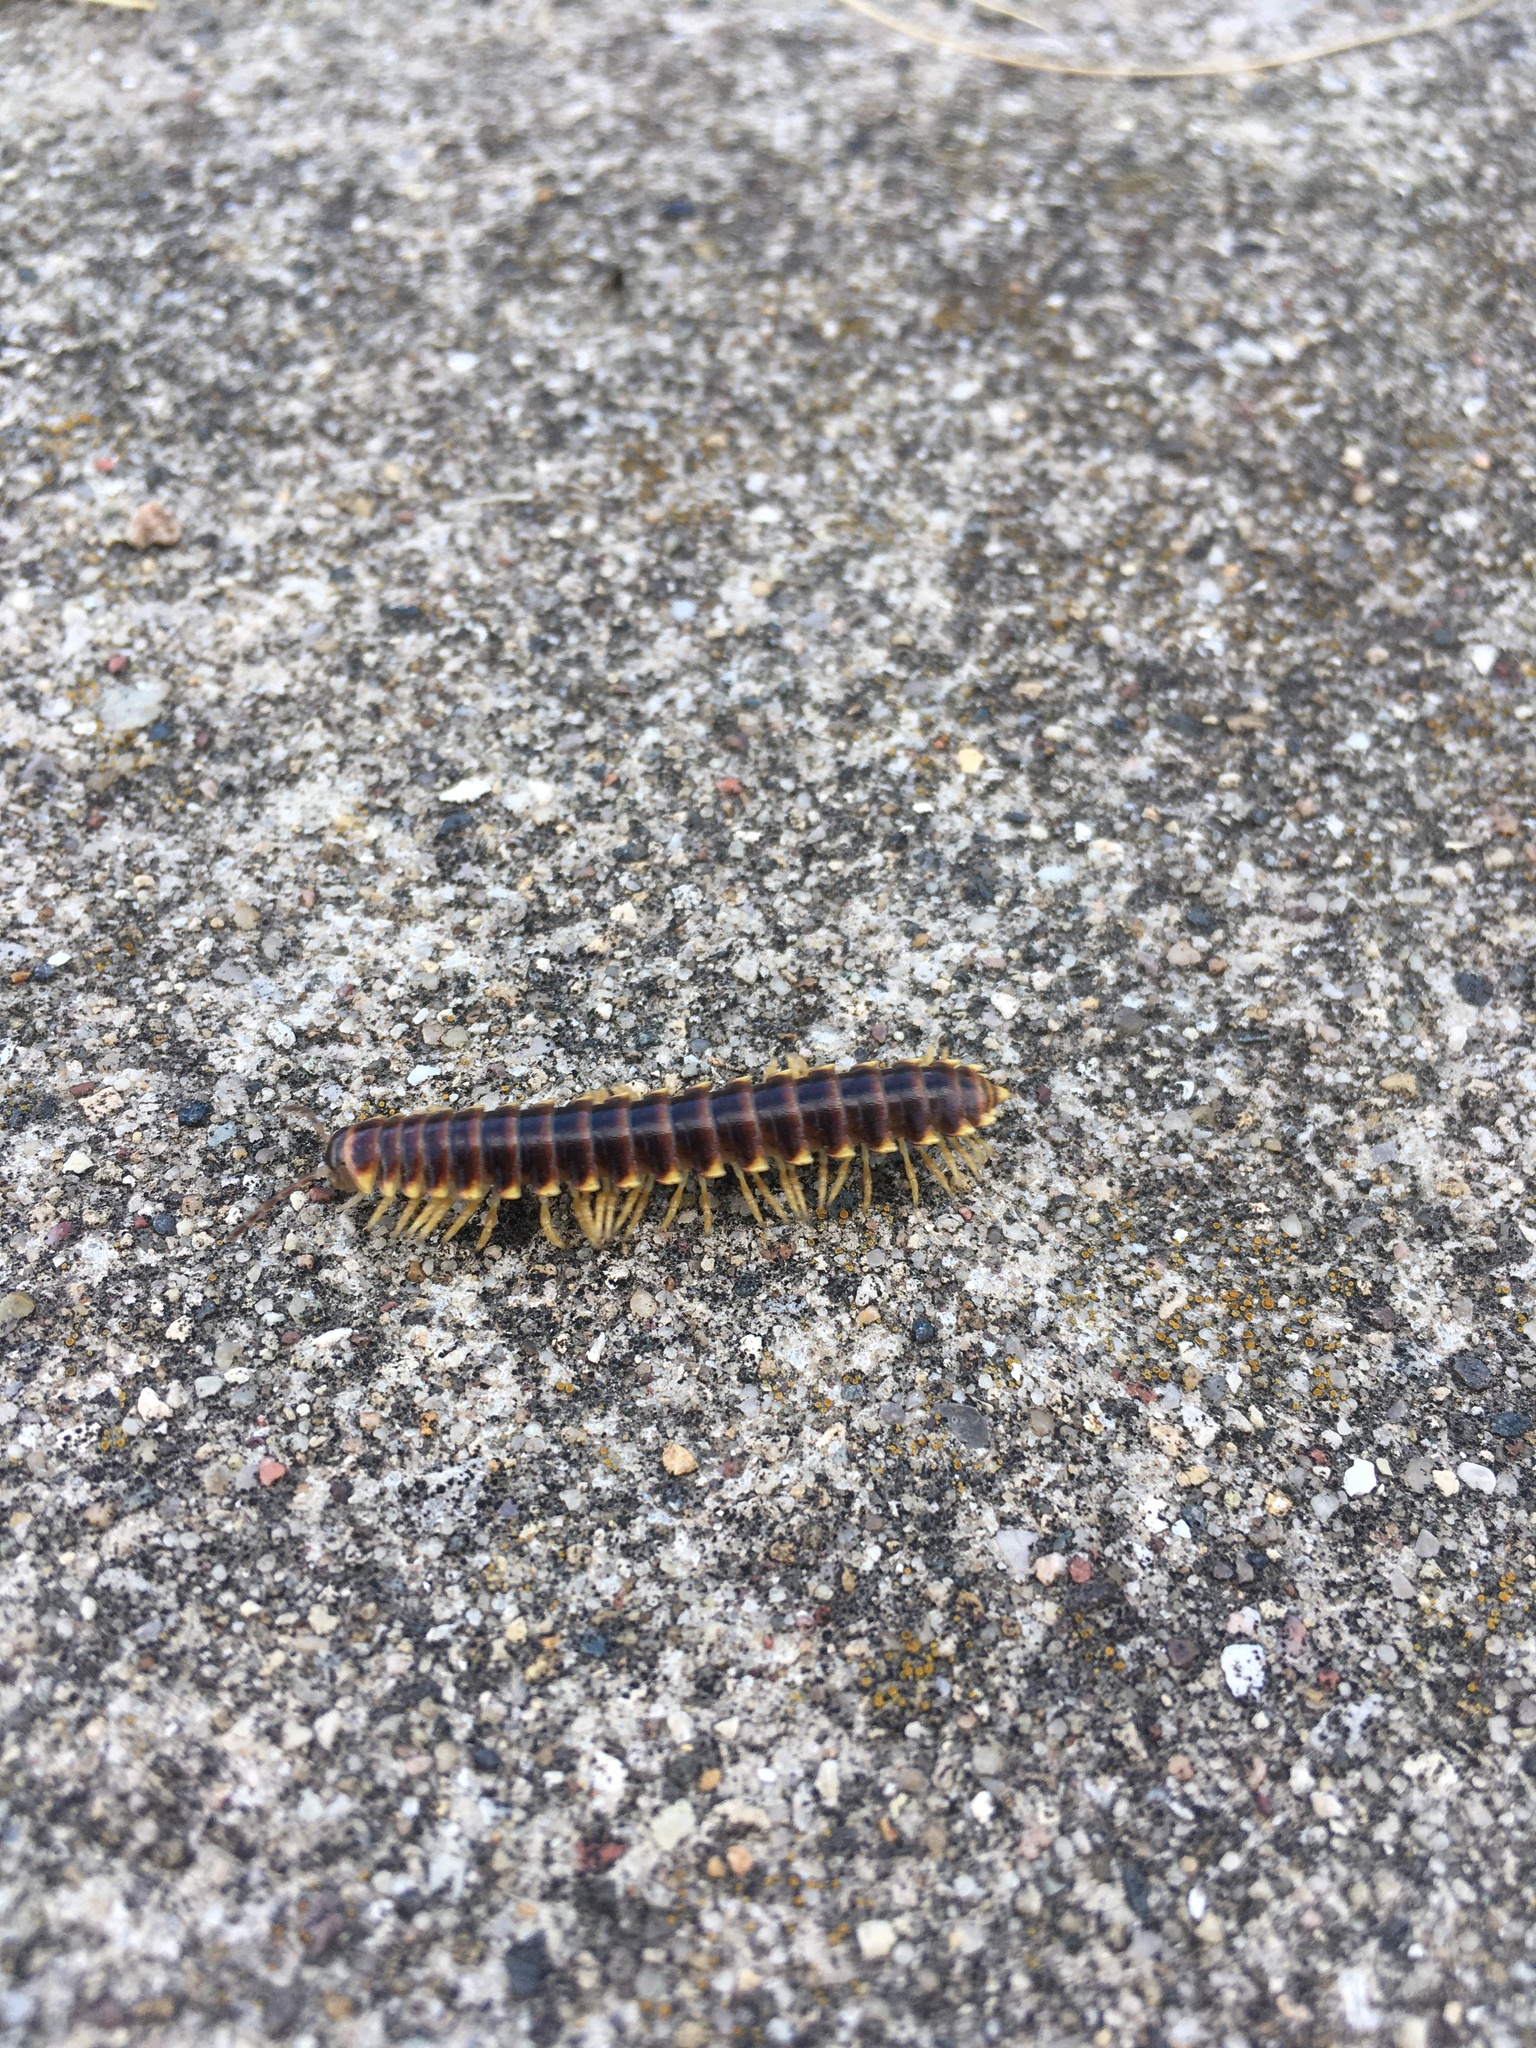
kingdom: Animalia
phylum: Arthropoda
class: Diplopoda
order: Polydesmida
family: Xystodesmidae
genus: Pleuroloma
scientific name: Pleuroloma flavipes
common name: Yellow-legged pleuroloma
